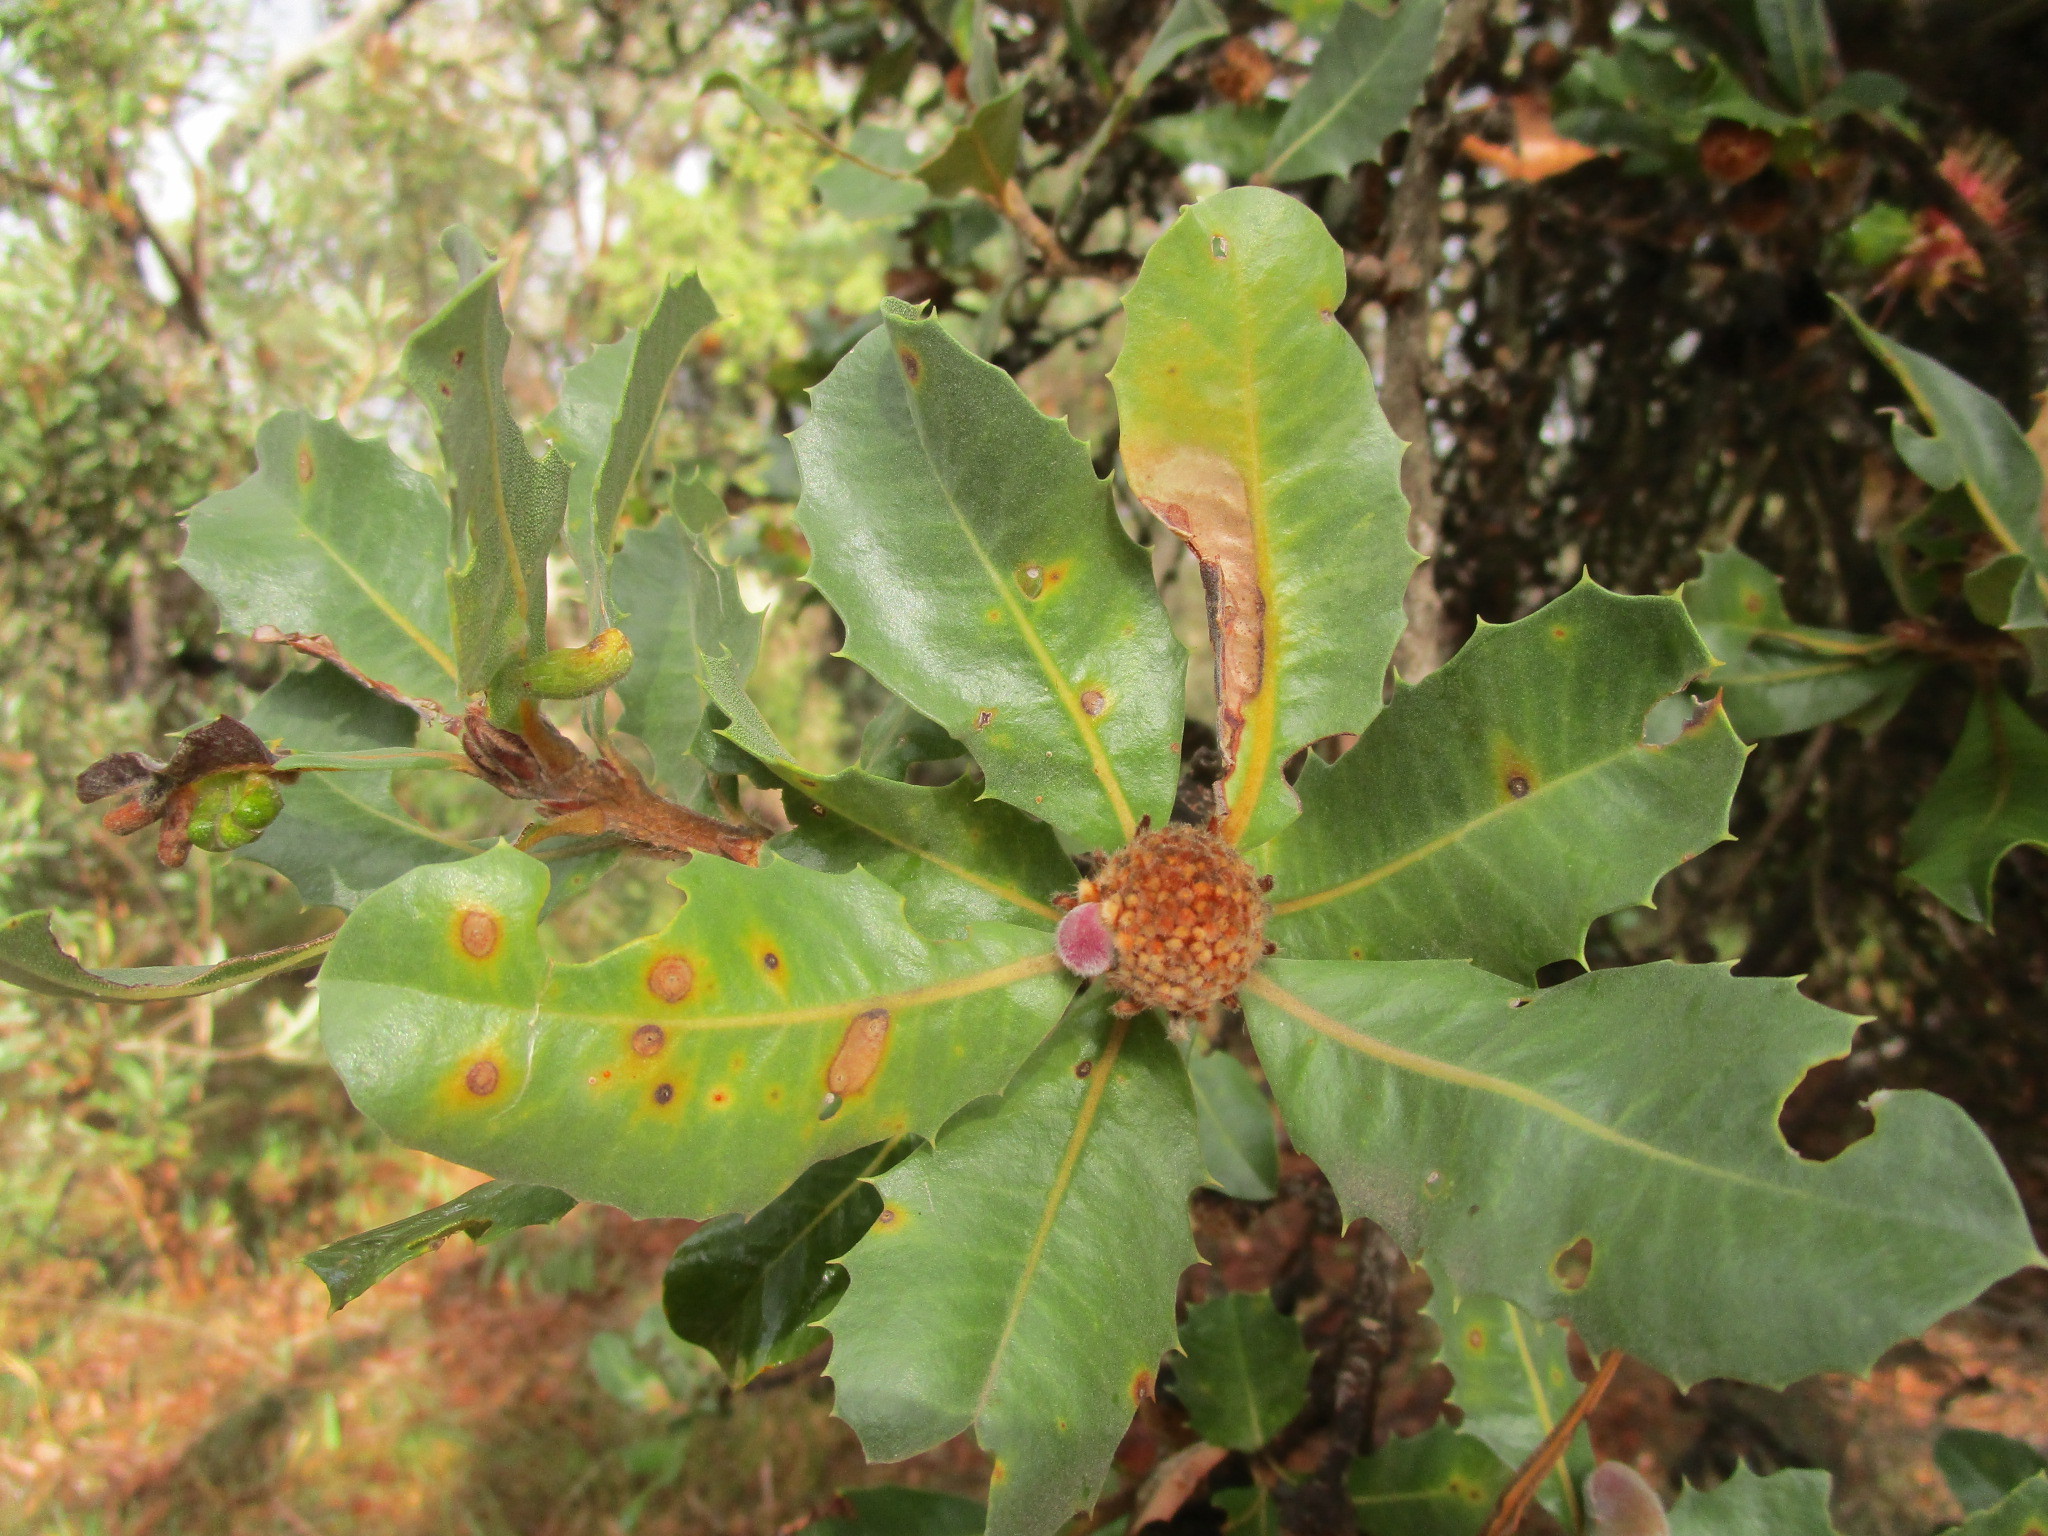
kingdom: Plantae
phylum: Tracheophyta
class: Magnoliopsida
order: Proteales
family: Proteaceae
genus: Banksia
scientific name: Banksia ilicifolia
